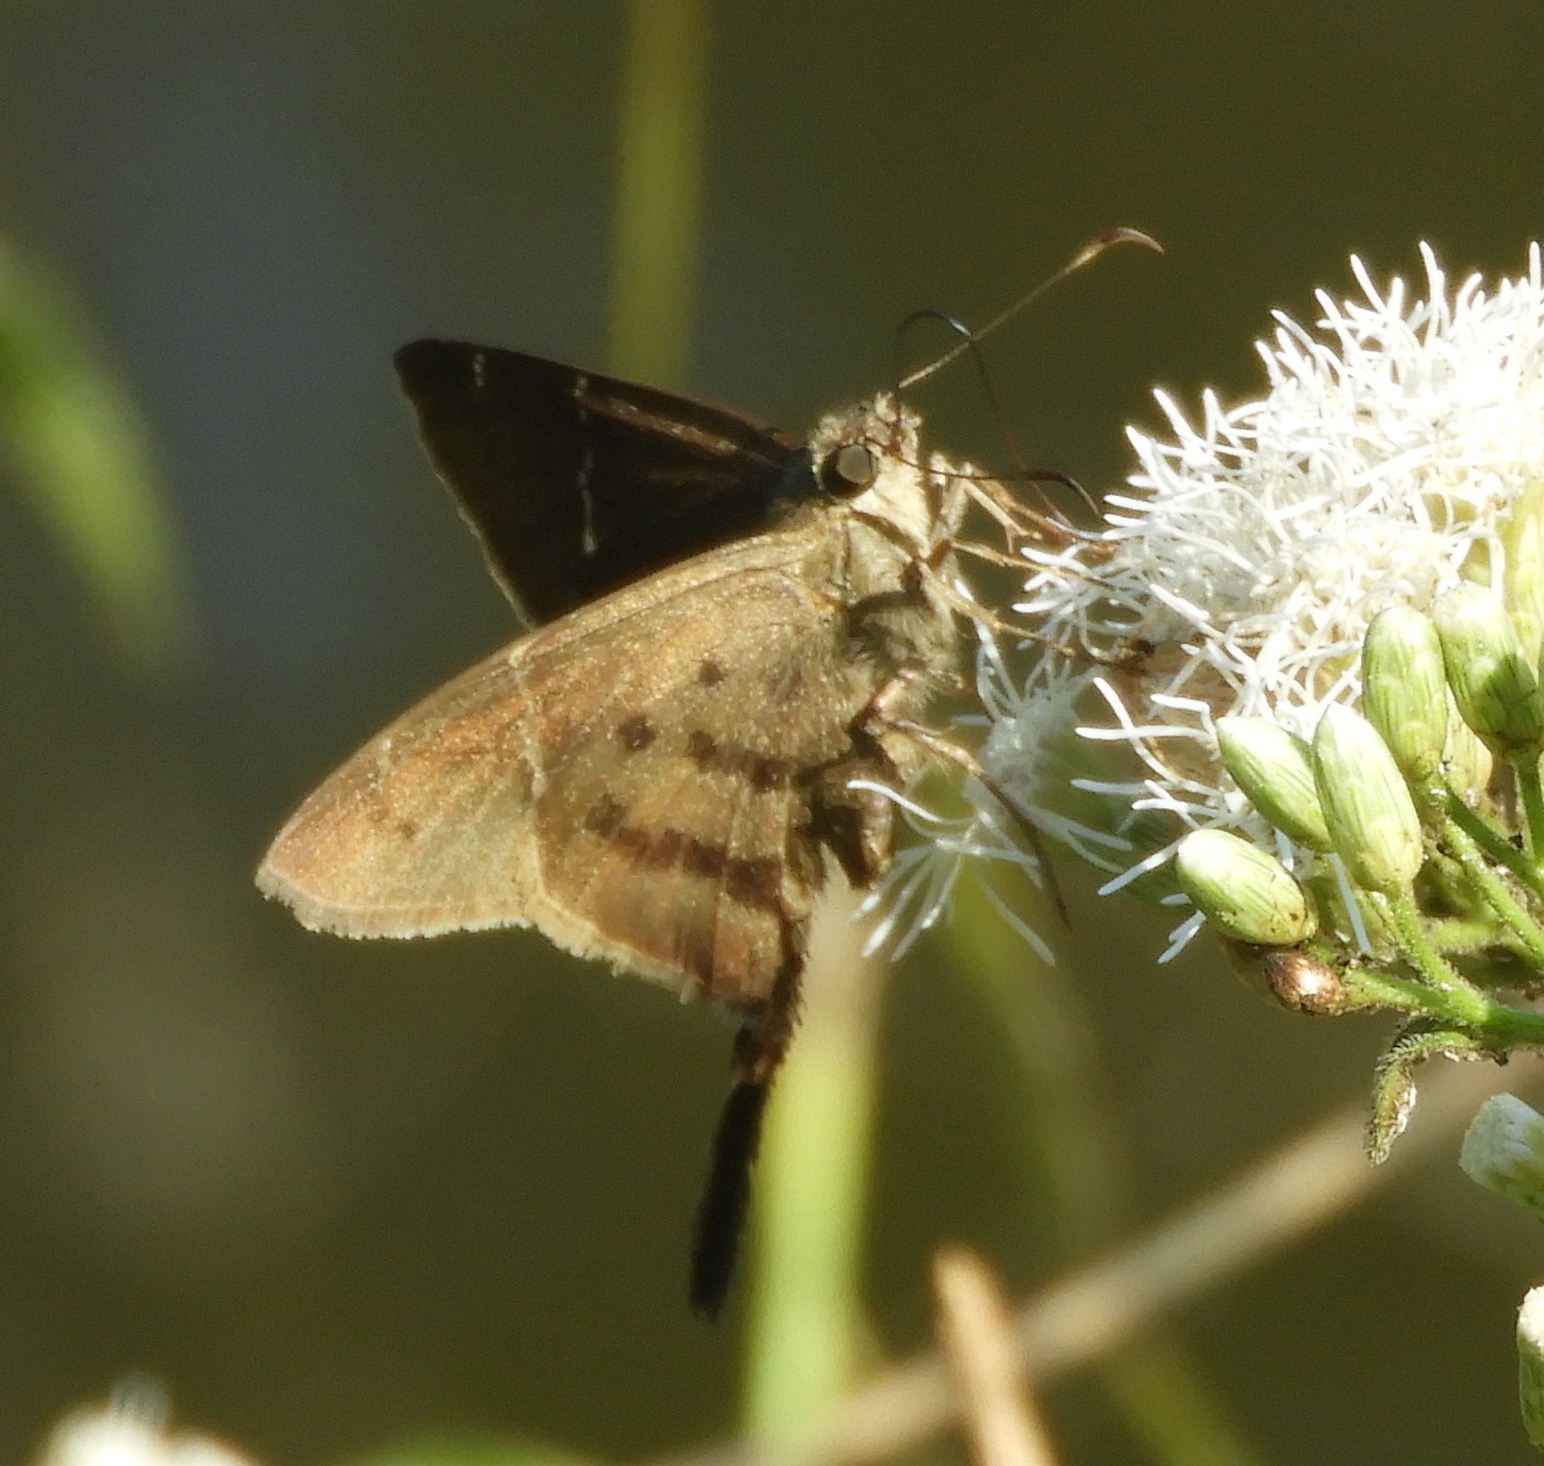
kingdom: Animalia
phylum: Arthropoda
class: Insecta
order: Lepidoptera
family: Hesperiidae
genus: Urbanus
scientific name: Urbanus procne
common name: Brown longtail
